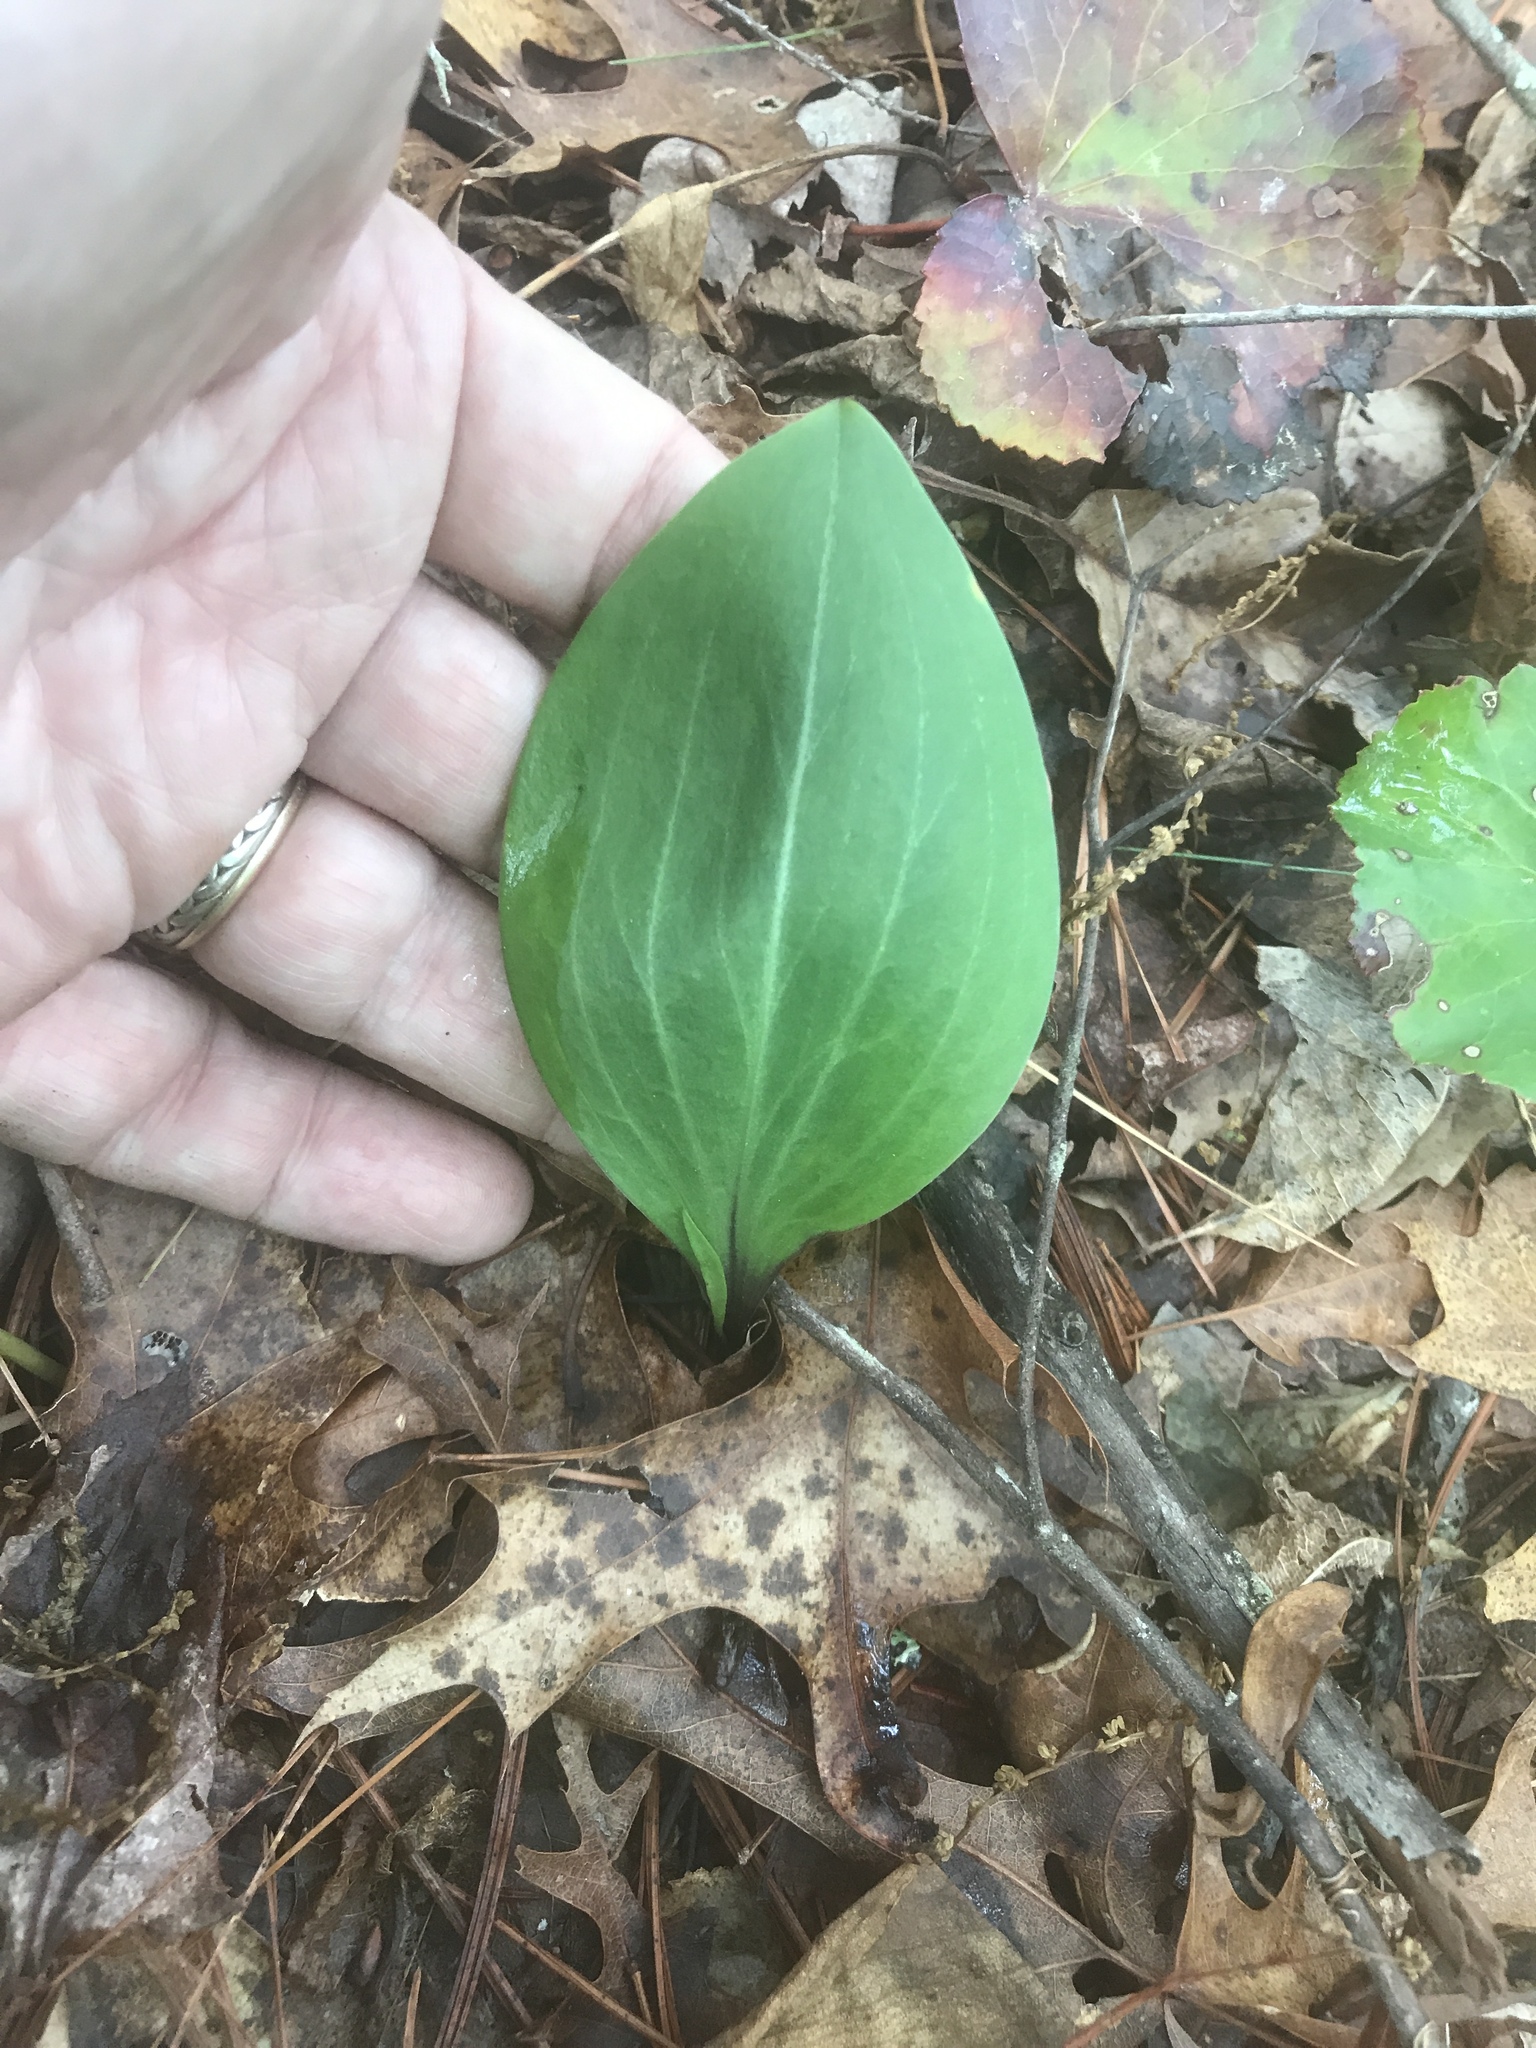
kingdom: Plantae
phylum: Tracheophyta
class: Liliopsida
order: Liliales
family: Liliaceae
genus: Lilium
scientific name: Lilium michauxii
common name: Carolina lily
